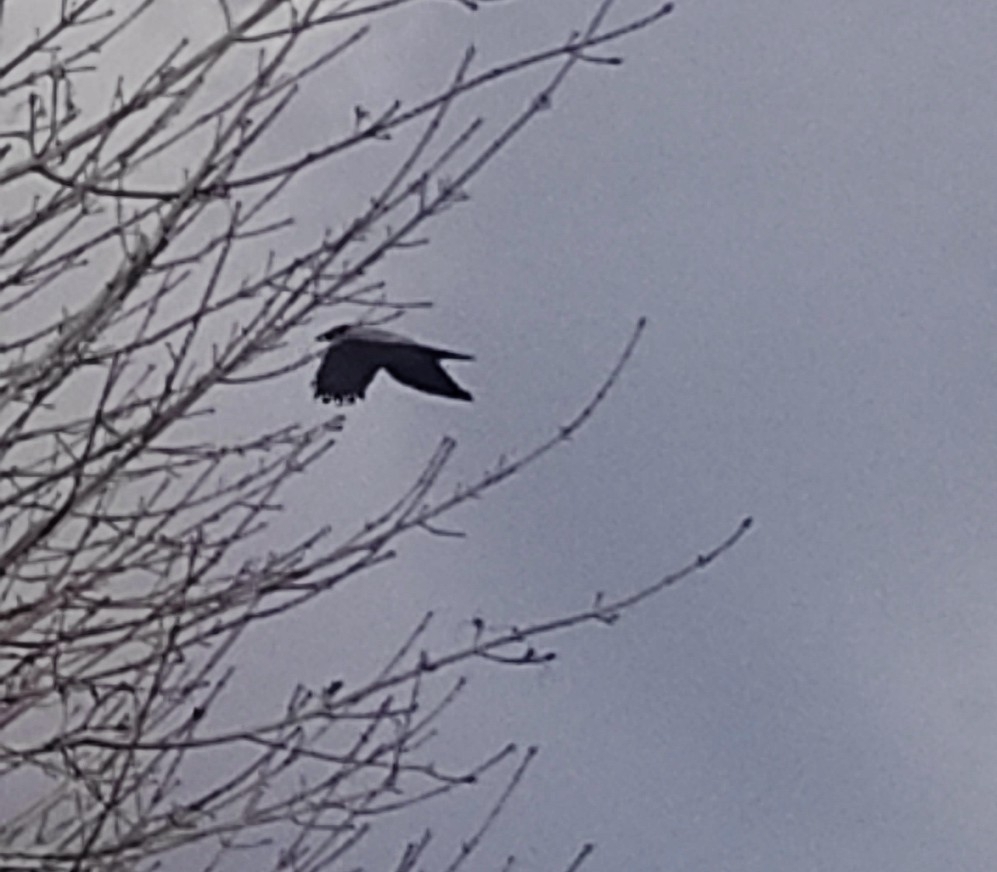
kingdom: Animalia
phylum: Chordata
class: Aves
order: Passeriformes
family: Corvidae
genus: Corvus
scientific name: Corvus cornix
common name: Hooded crow
